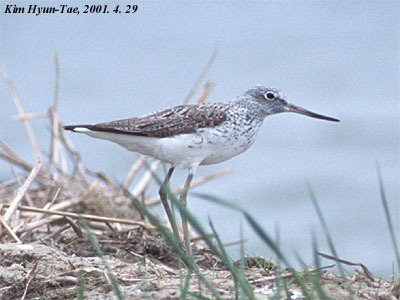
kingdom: Animalia
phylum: Chordata
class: Aves
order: Charadriiformes
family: Scolopacidae
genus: Tringa
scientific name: Tringa nebularia
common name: Common greenshank
